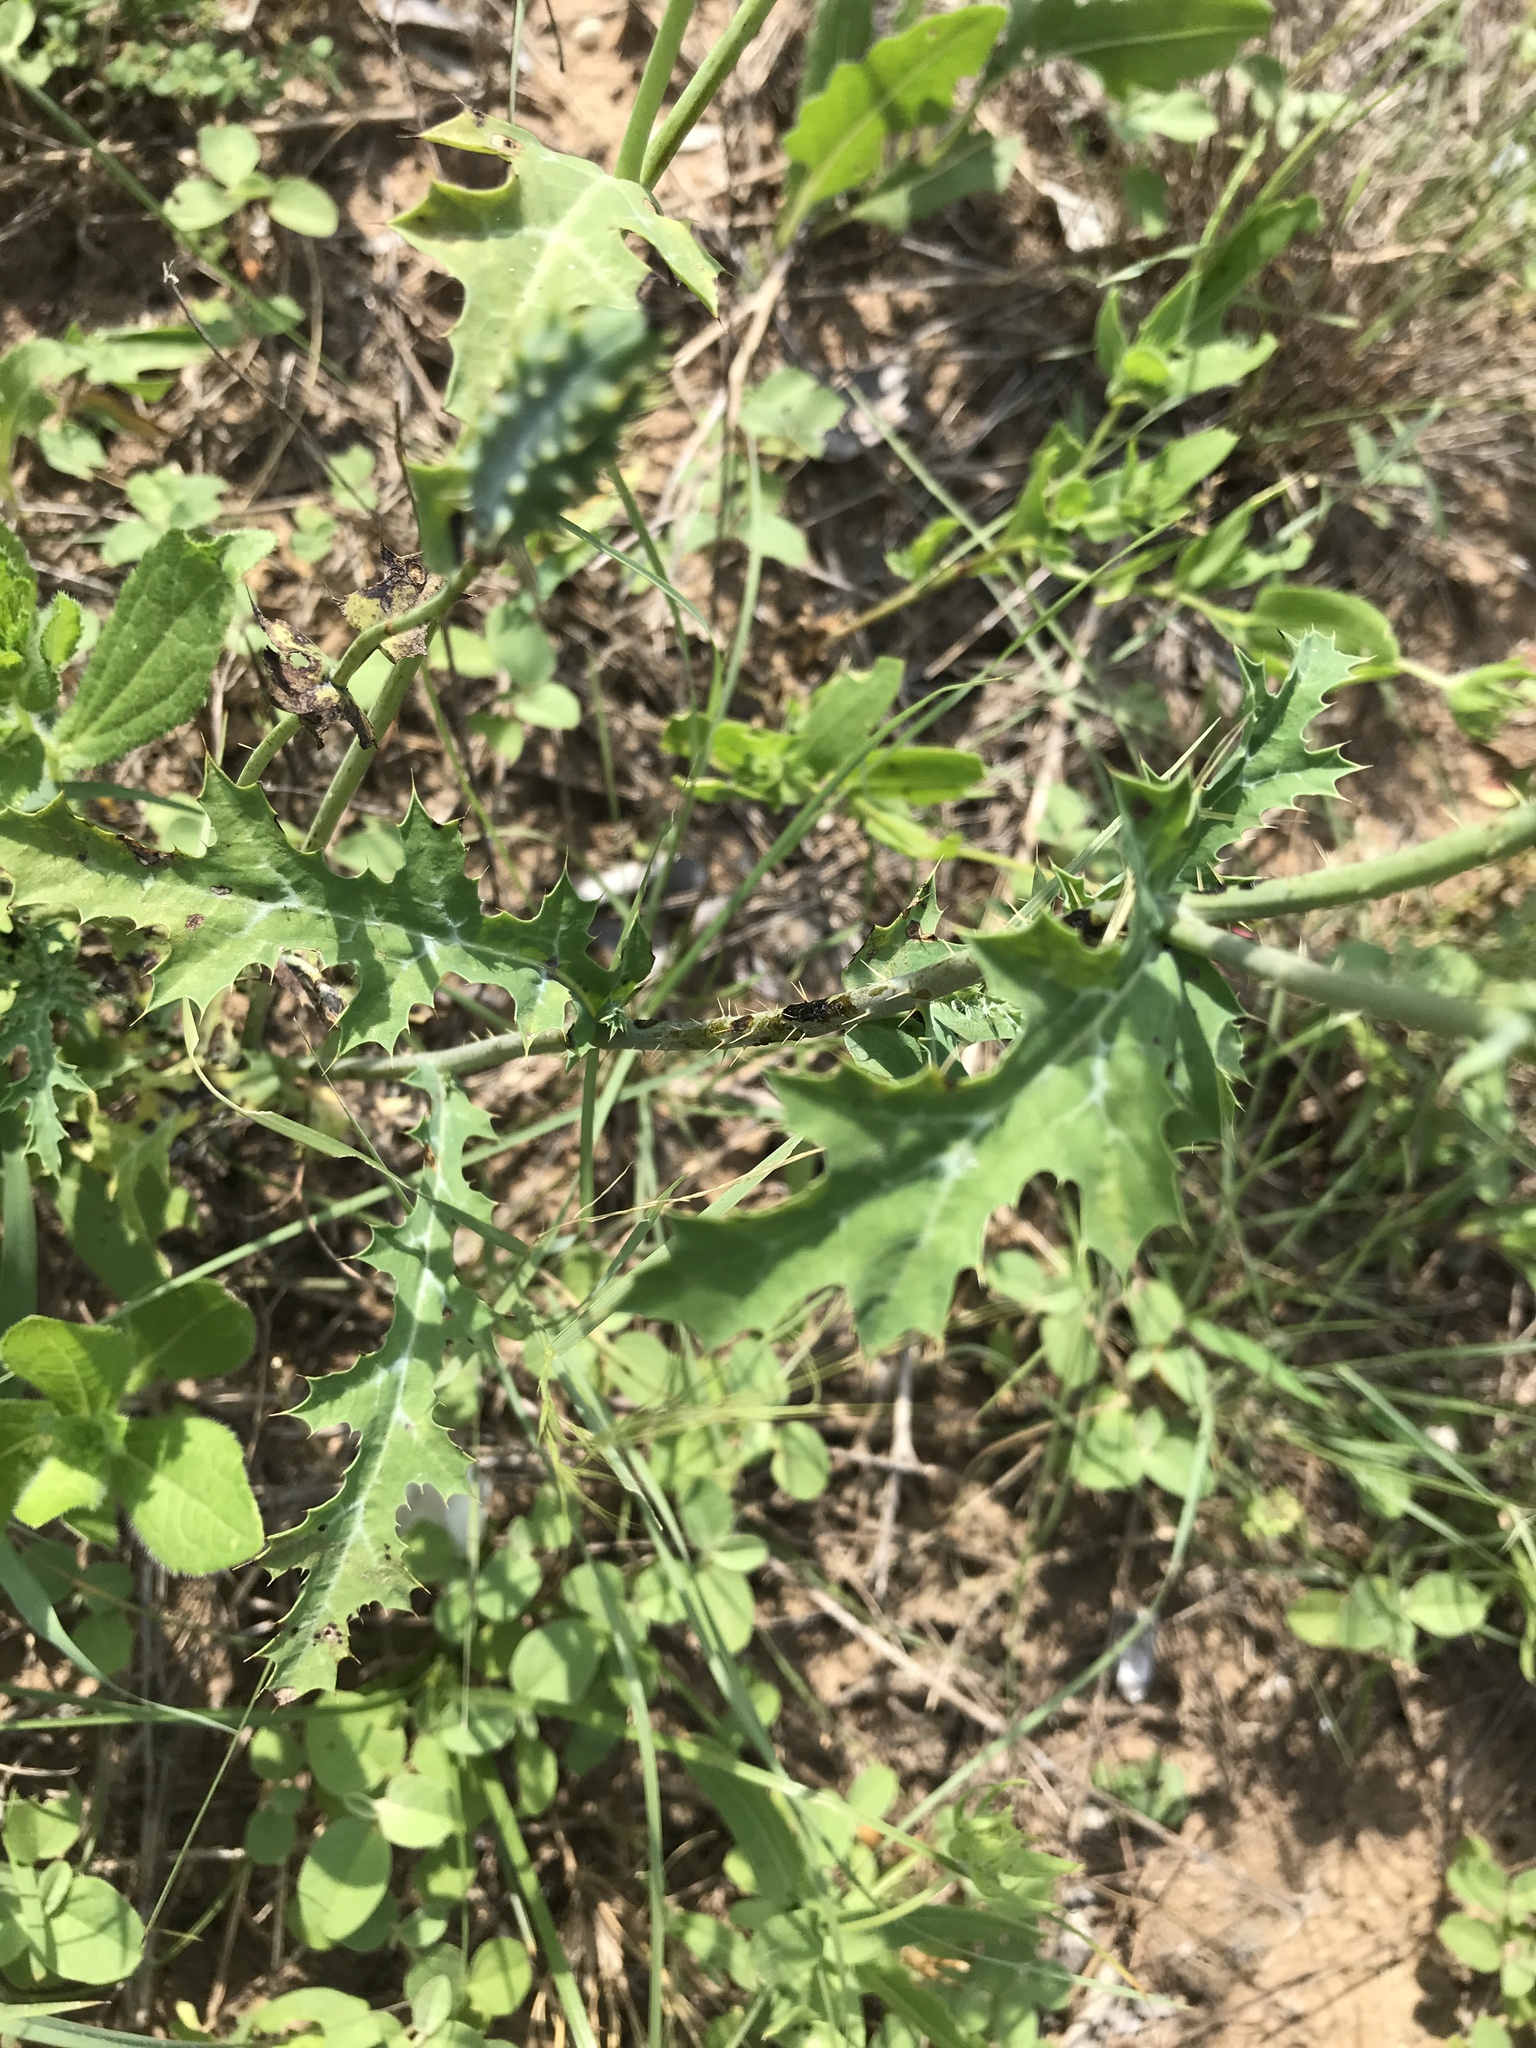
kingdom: Plantae
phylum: Tracheophyta
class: Magnoliopsida
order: Ranunculales
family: Papaveraceae
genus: Argemone
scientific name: Argemone albiflora
